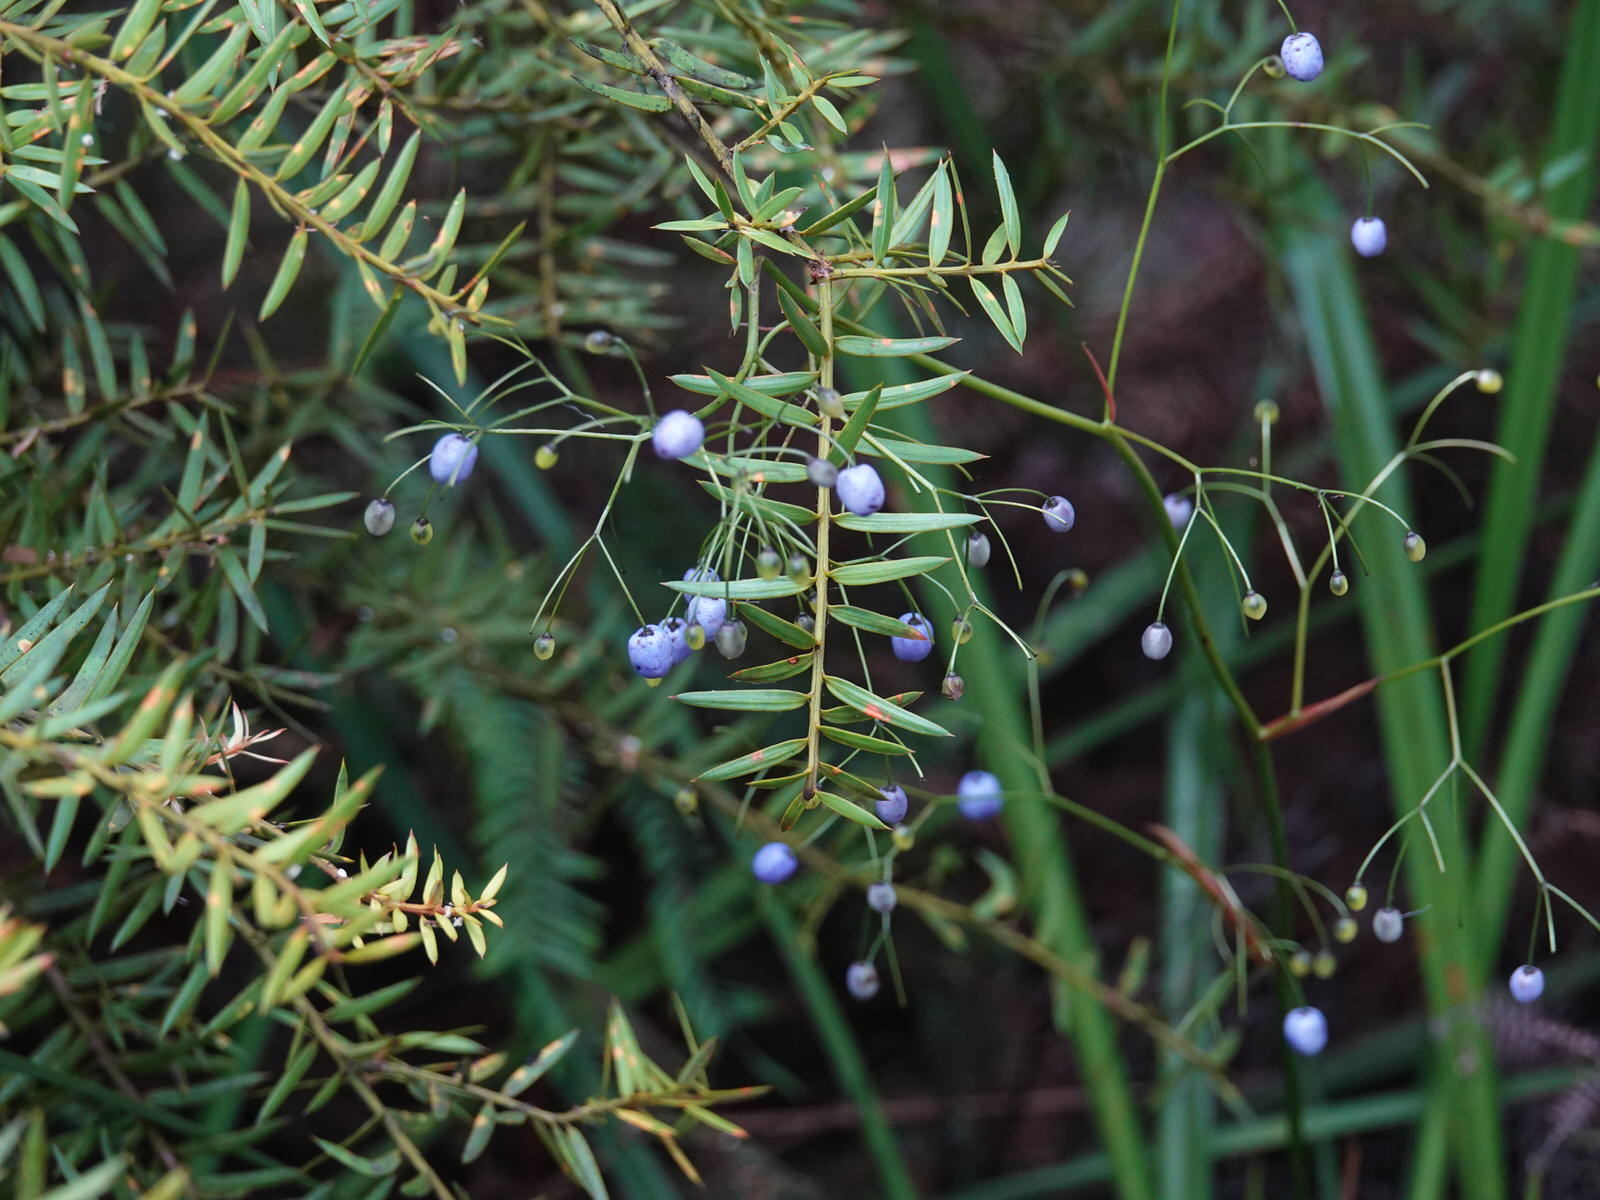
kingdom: Plantae
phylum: Tracheophyta
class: Liliopsida
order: Asparagales
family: Asphodelaceae
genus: Dianella
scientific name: Dianella nigra
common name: New zealand-blueberry
